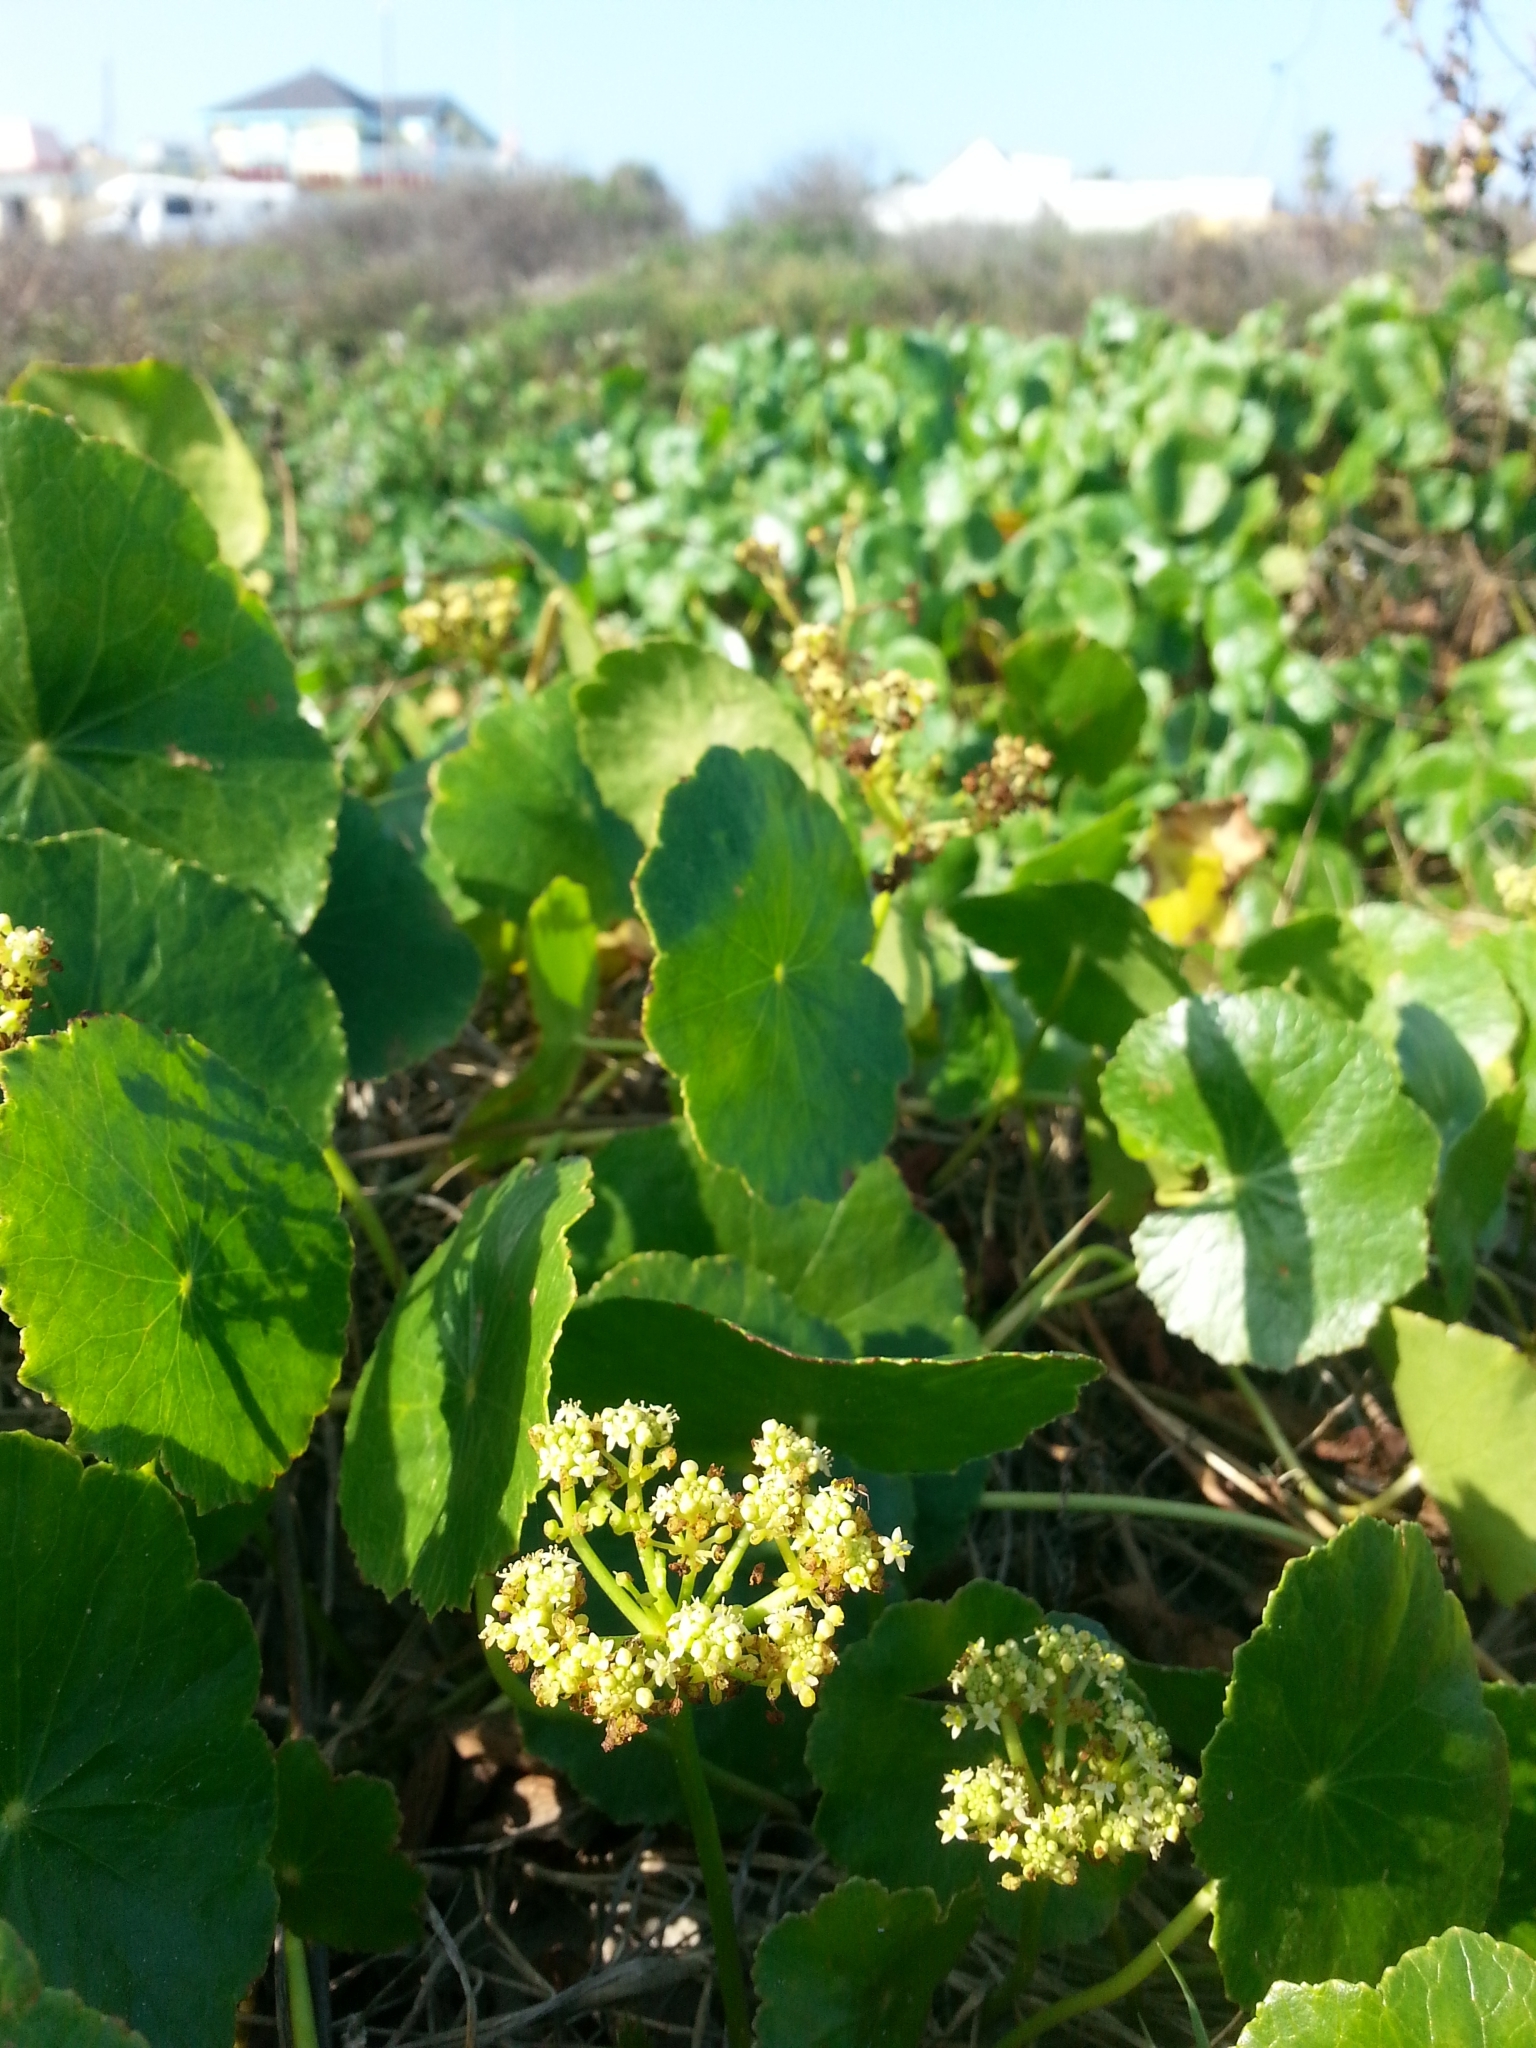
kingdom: Plantae
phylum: Tracheophyta
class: Magnoliopsida
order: Apiales
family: Araliaceae
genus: Hydrocotyle
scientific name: Hydrocotyle bonariensis
